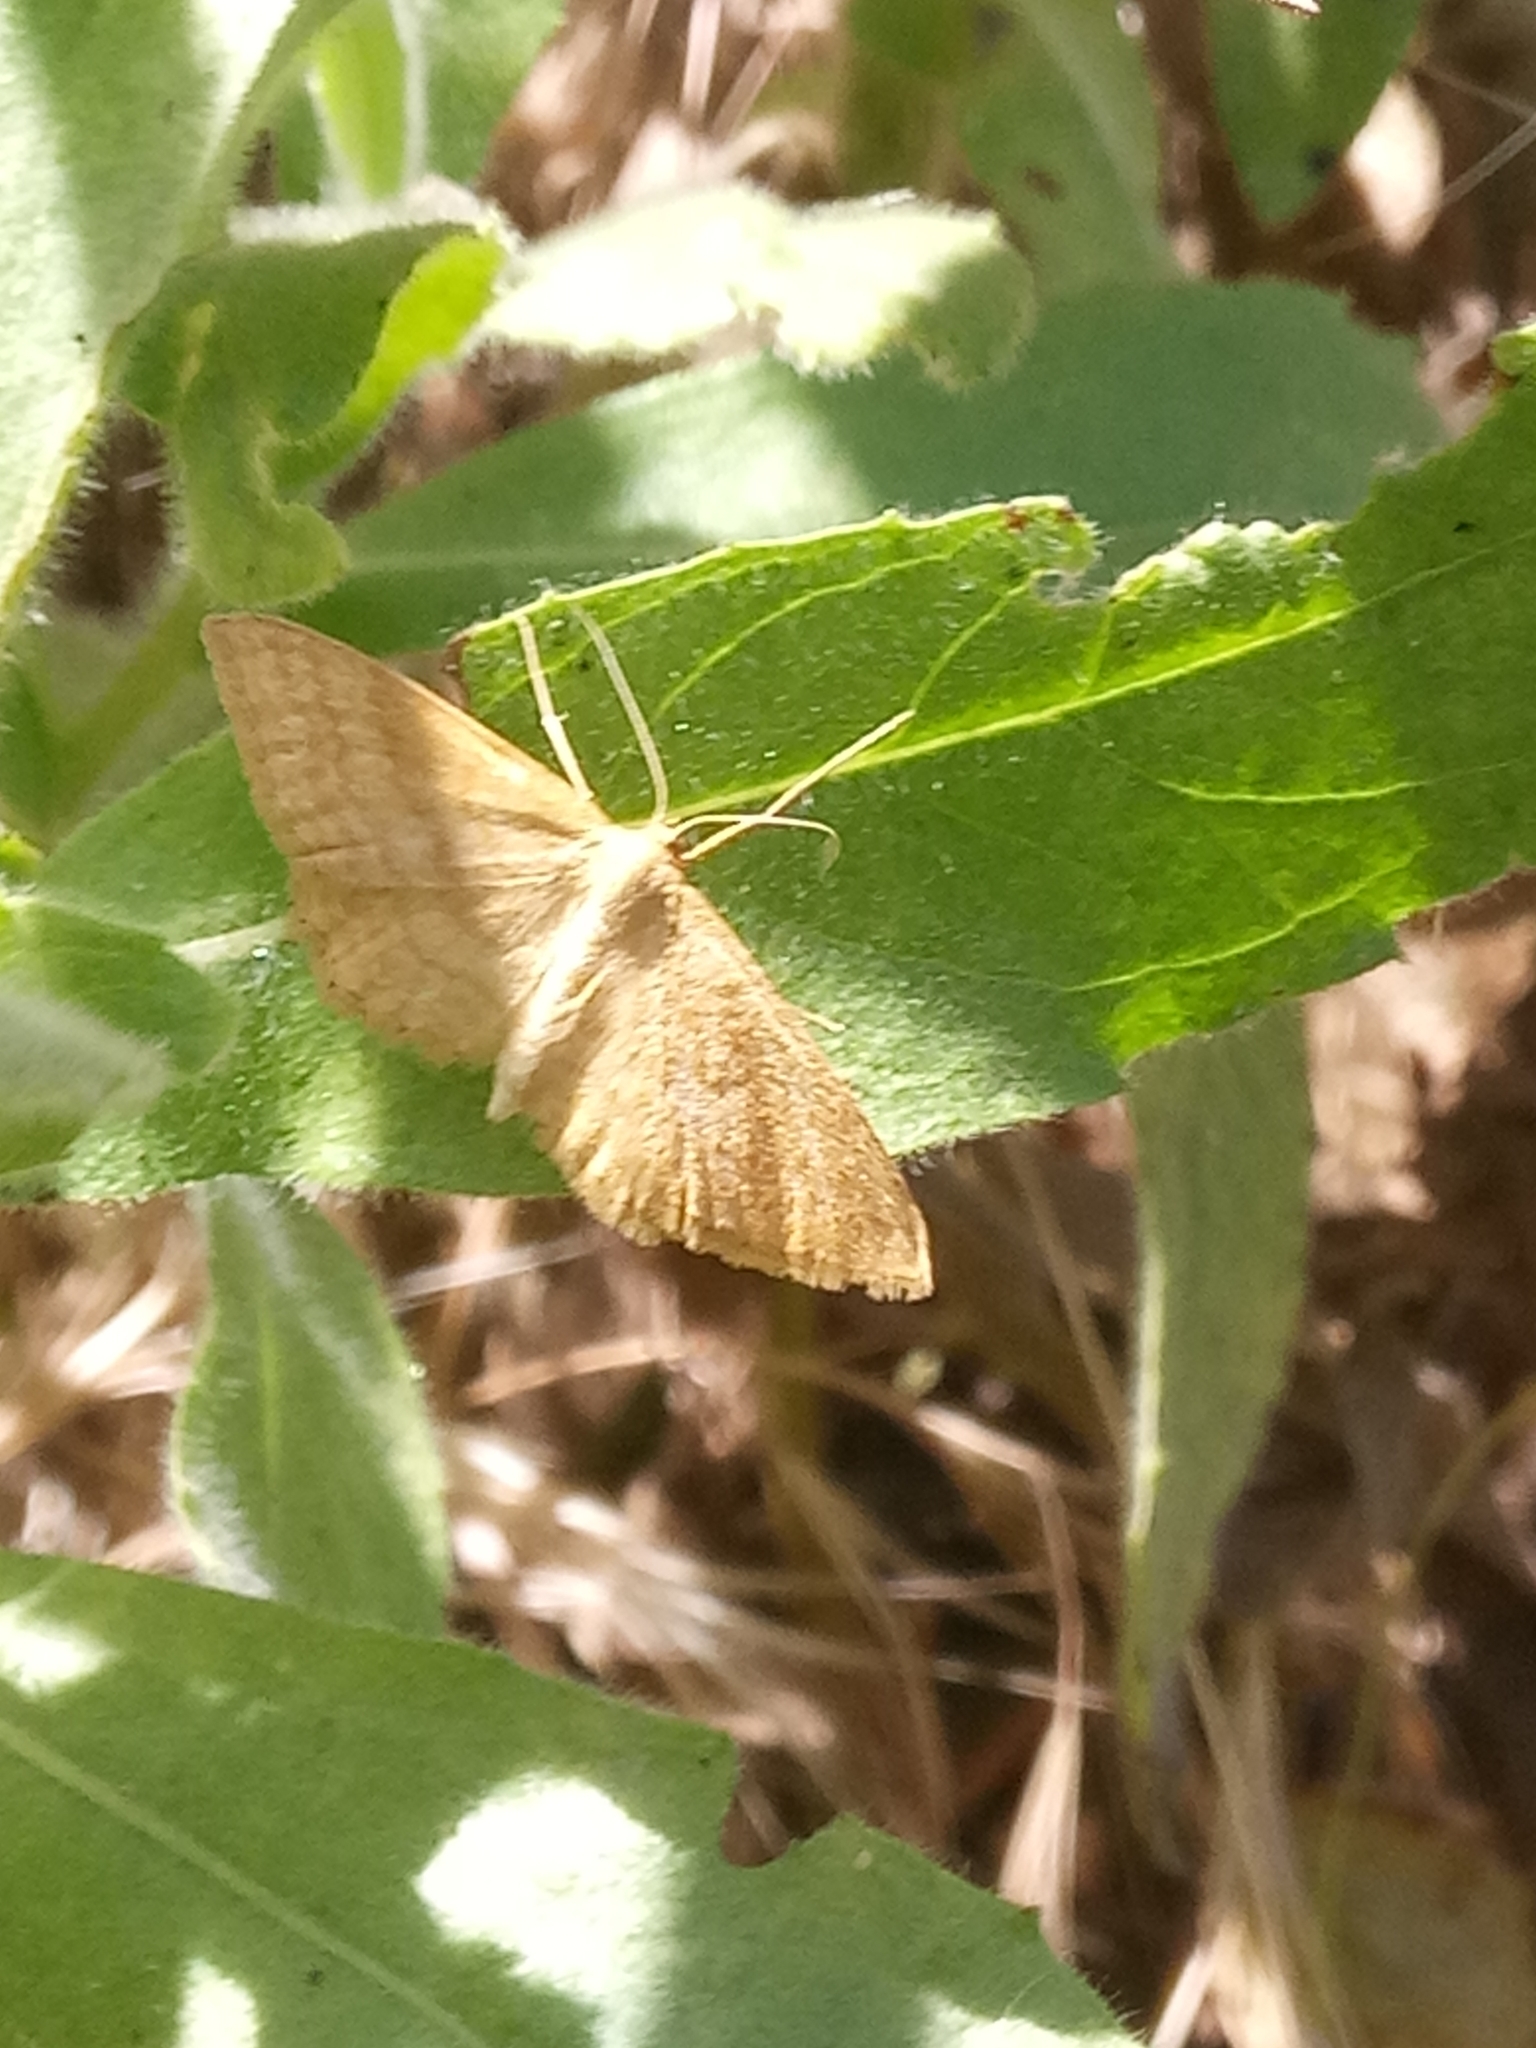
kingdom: Animalia
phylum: Arthropoda
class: Insecta
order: Lepidoptera
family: Geometridae
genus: Idaea
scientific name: Idaea ochrata
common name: Bright wave
